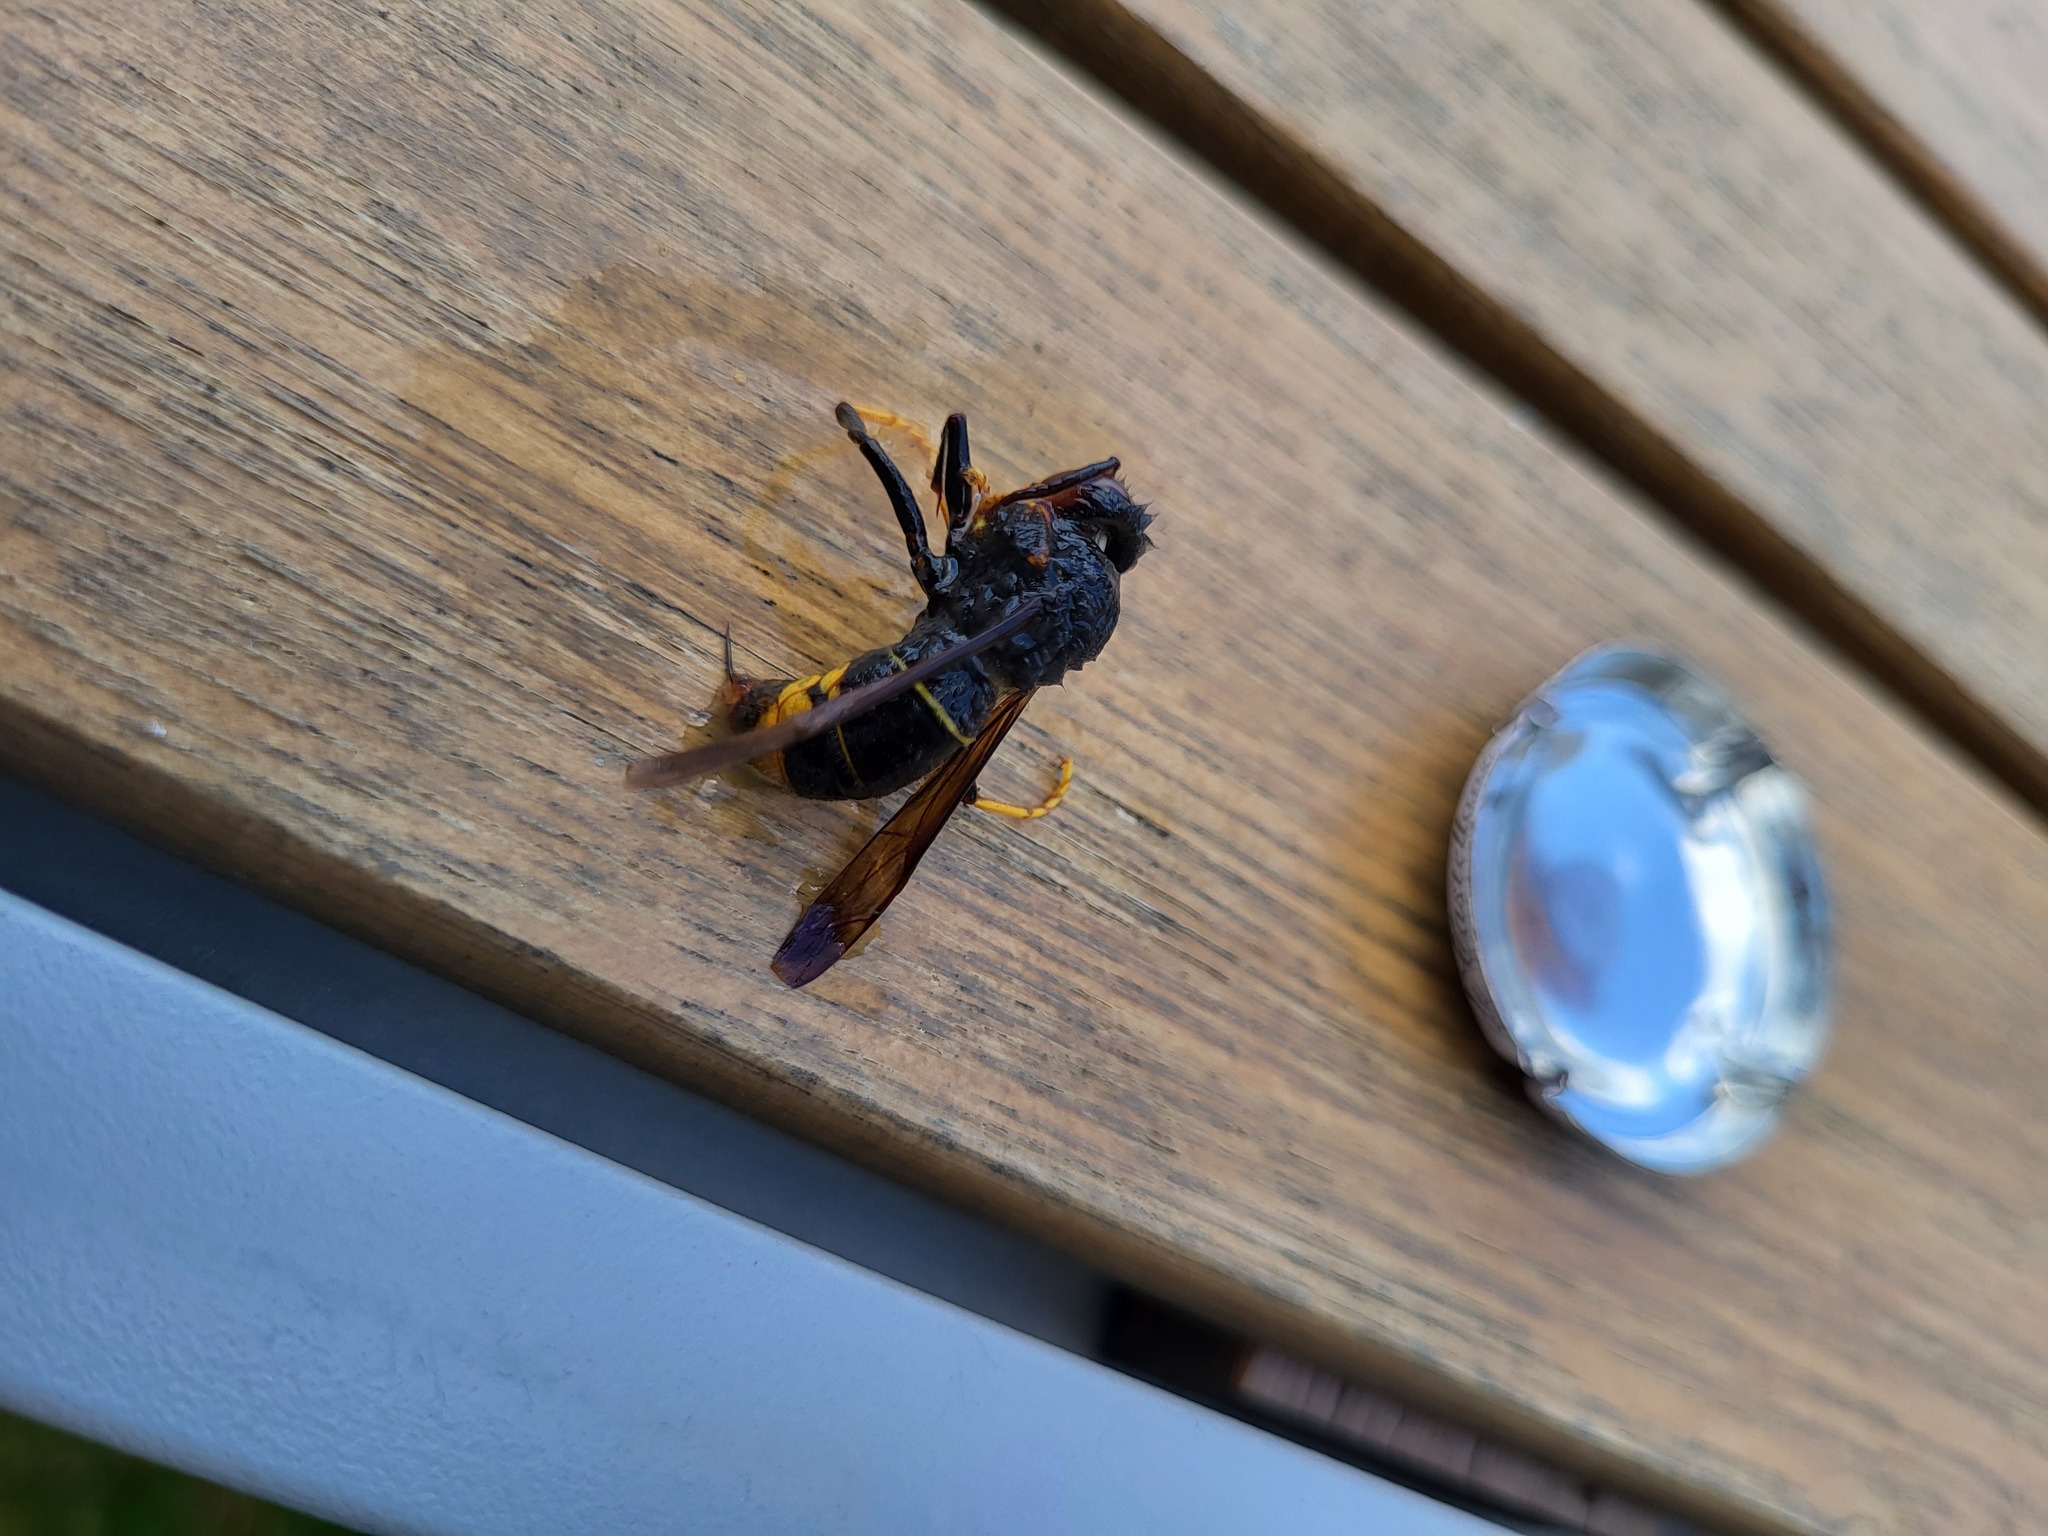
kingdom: Animalia
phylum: Arthropoda
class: Insecta
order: Hymenoptera
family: Vespidae
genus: Vespa
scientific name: Vespa velutina
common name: Asian hornet
